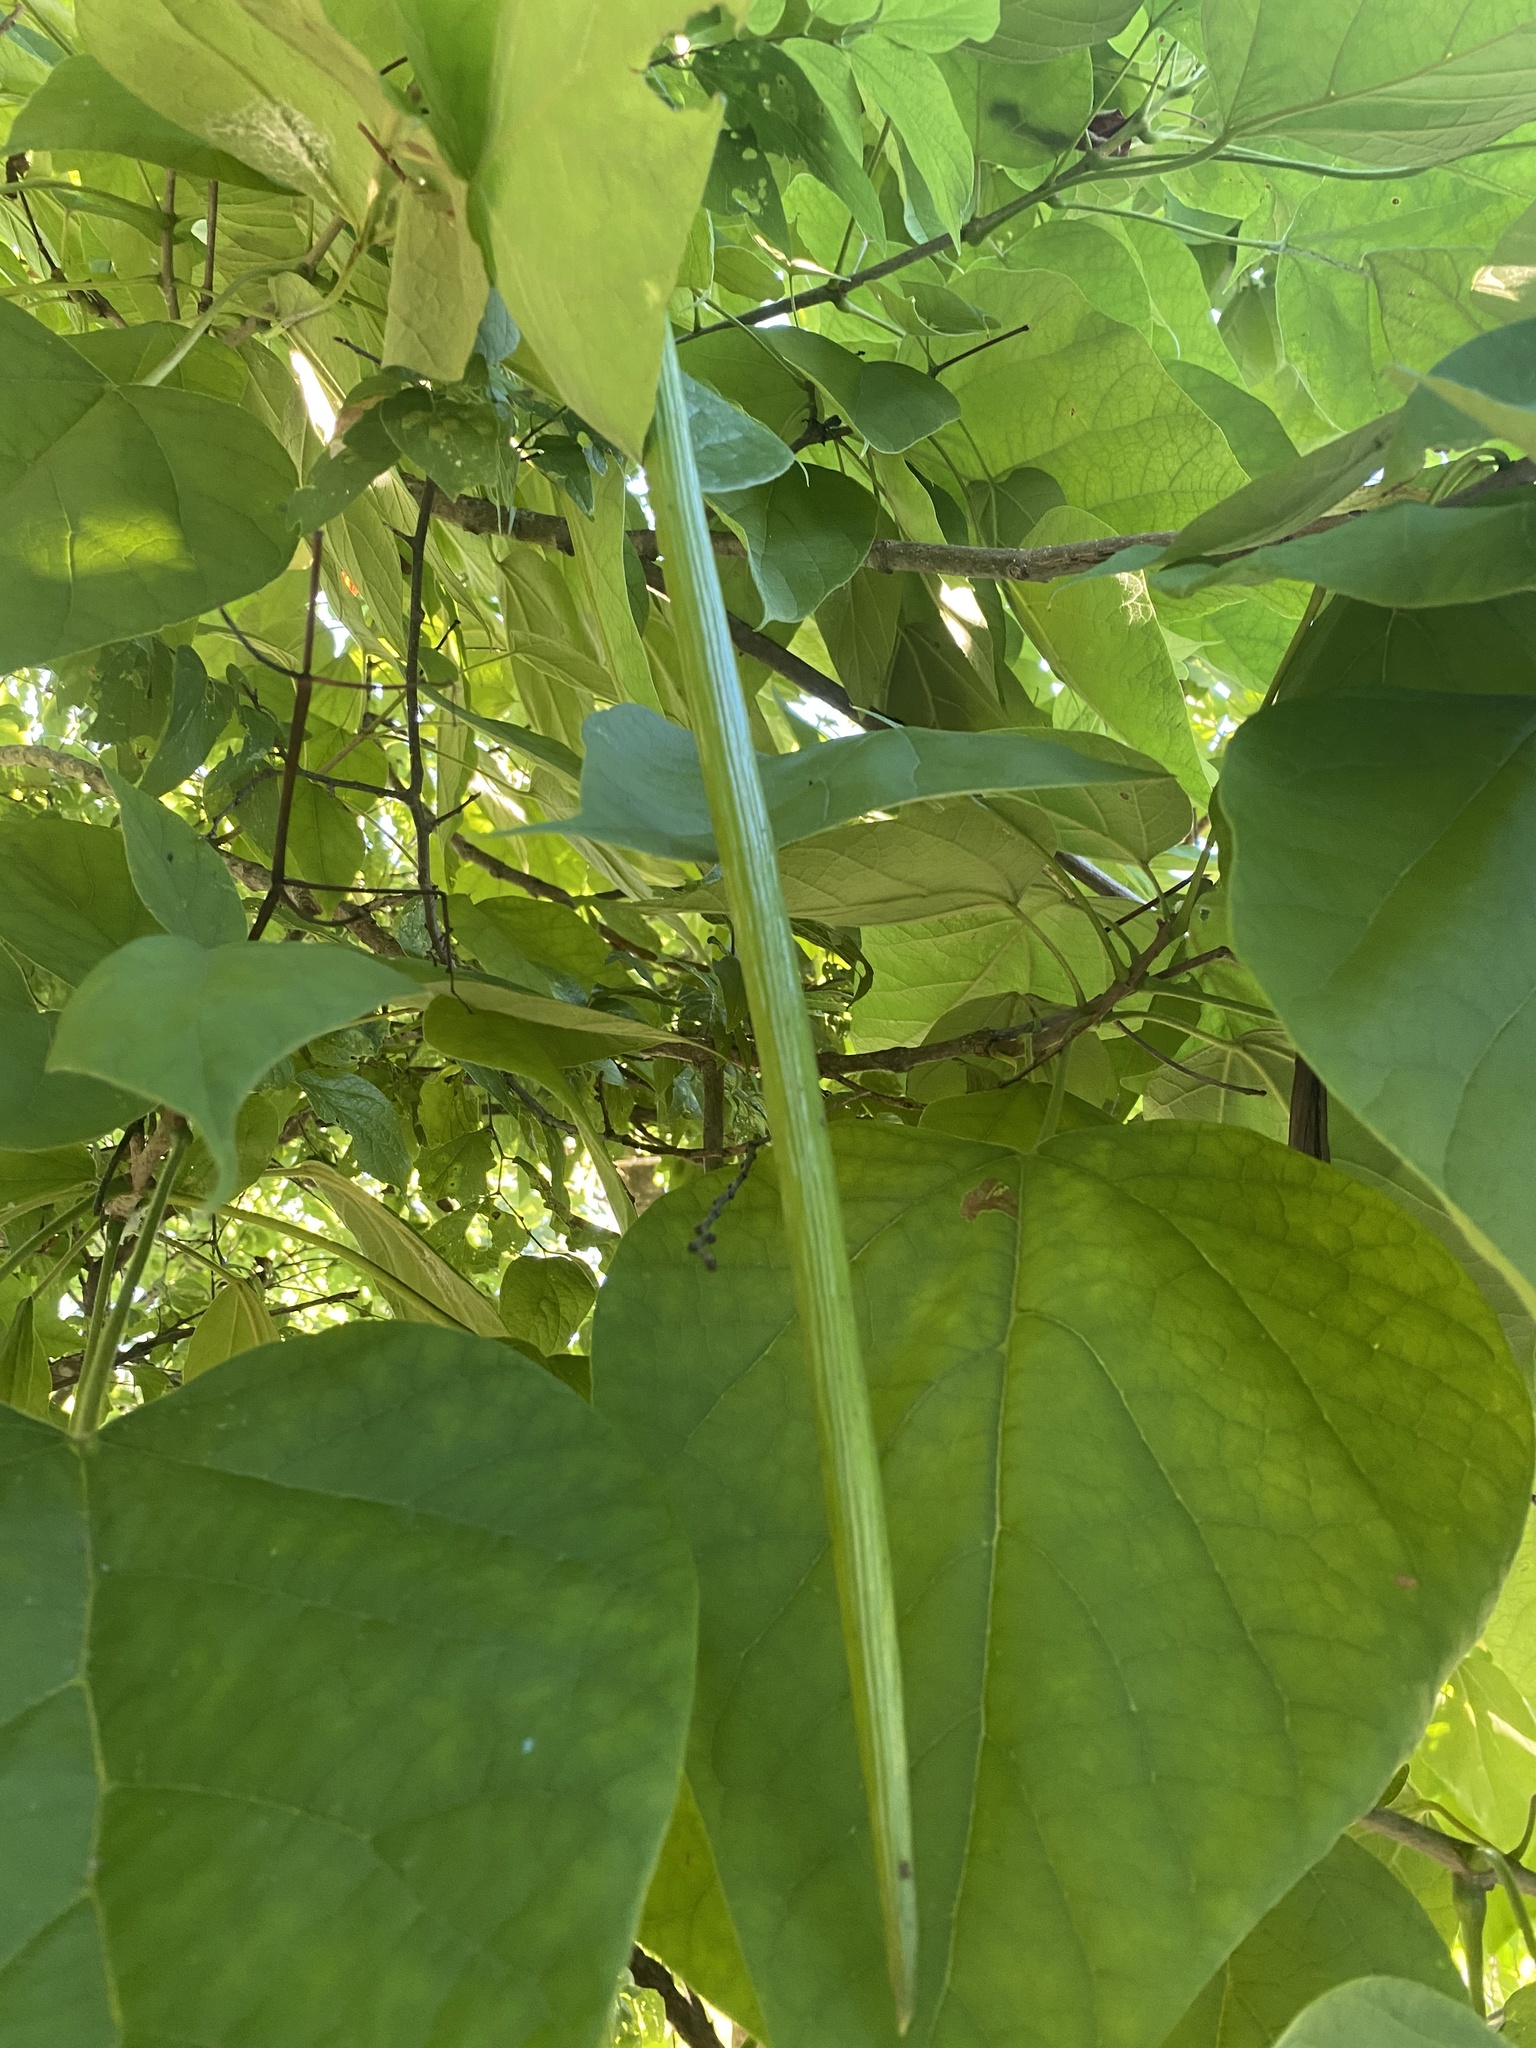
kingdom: Plantae
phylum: Tracheophyta
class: Magnoliopsida
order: Malpighiales
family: Euphorbiaceae
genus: Triadica
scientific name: Triadica sebifera
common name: Chinese tallow
